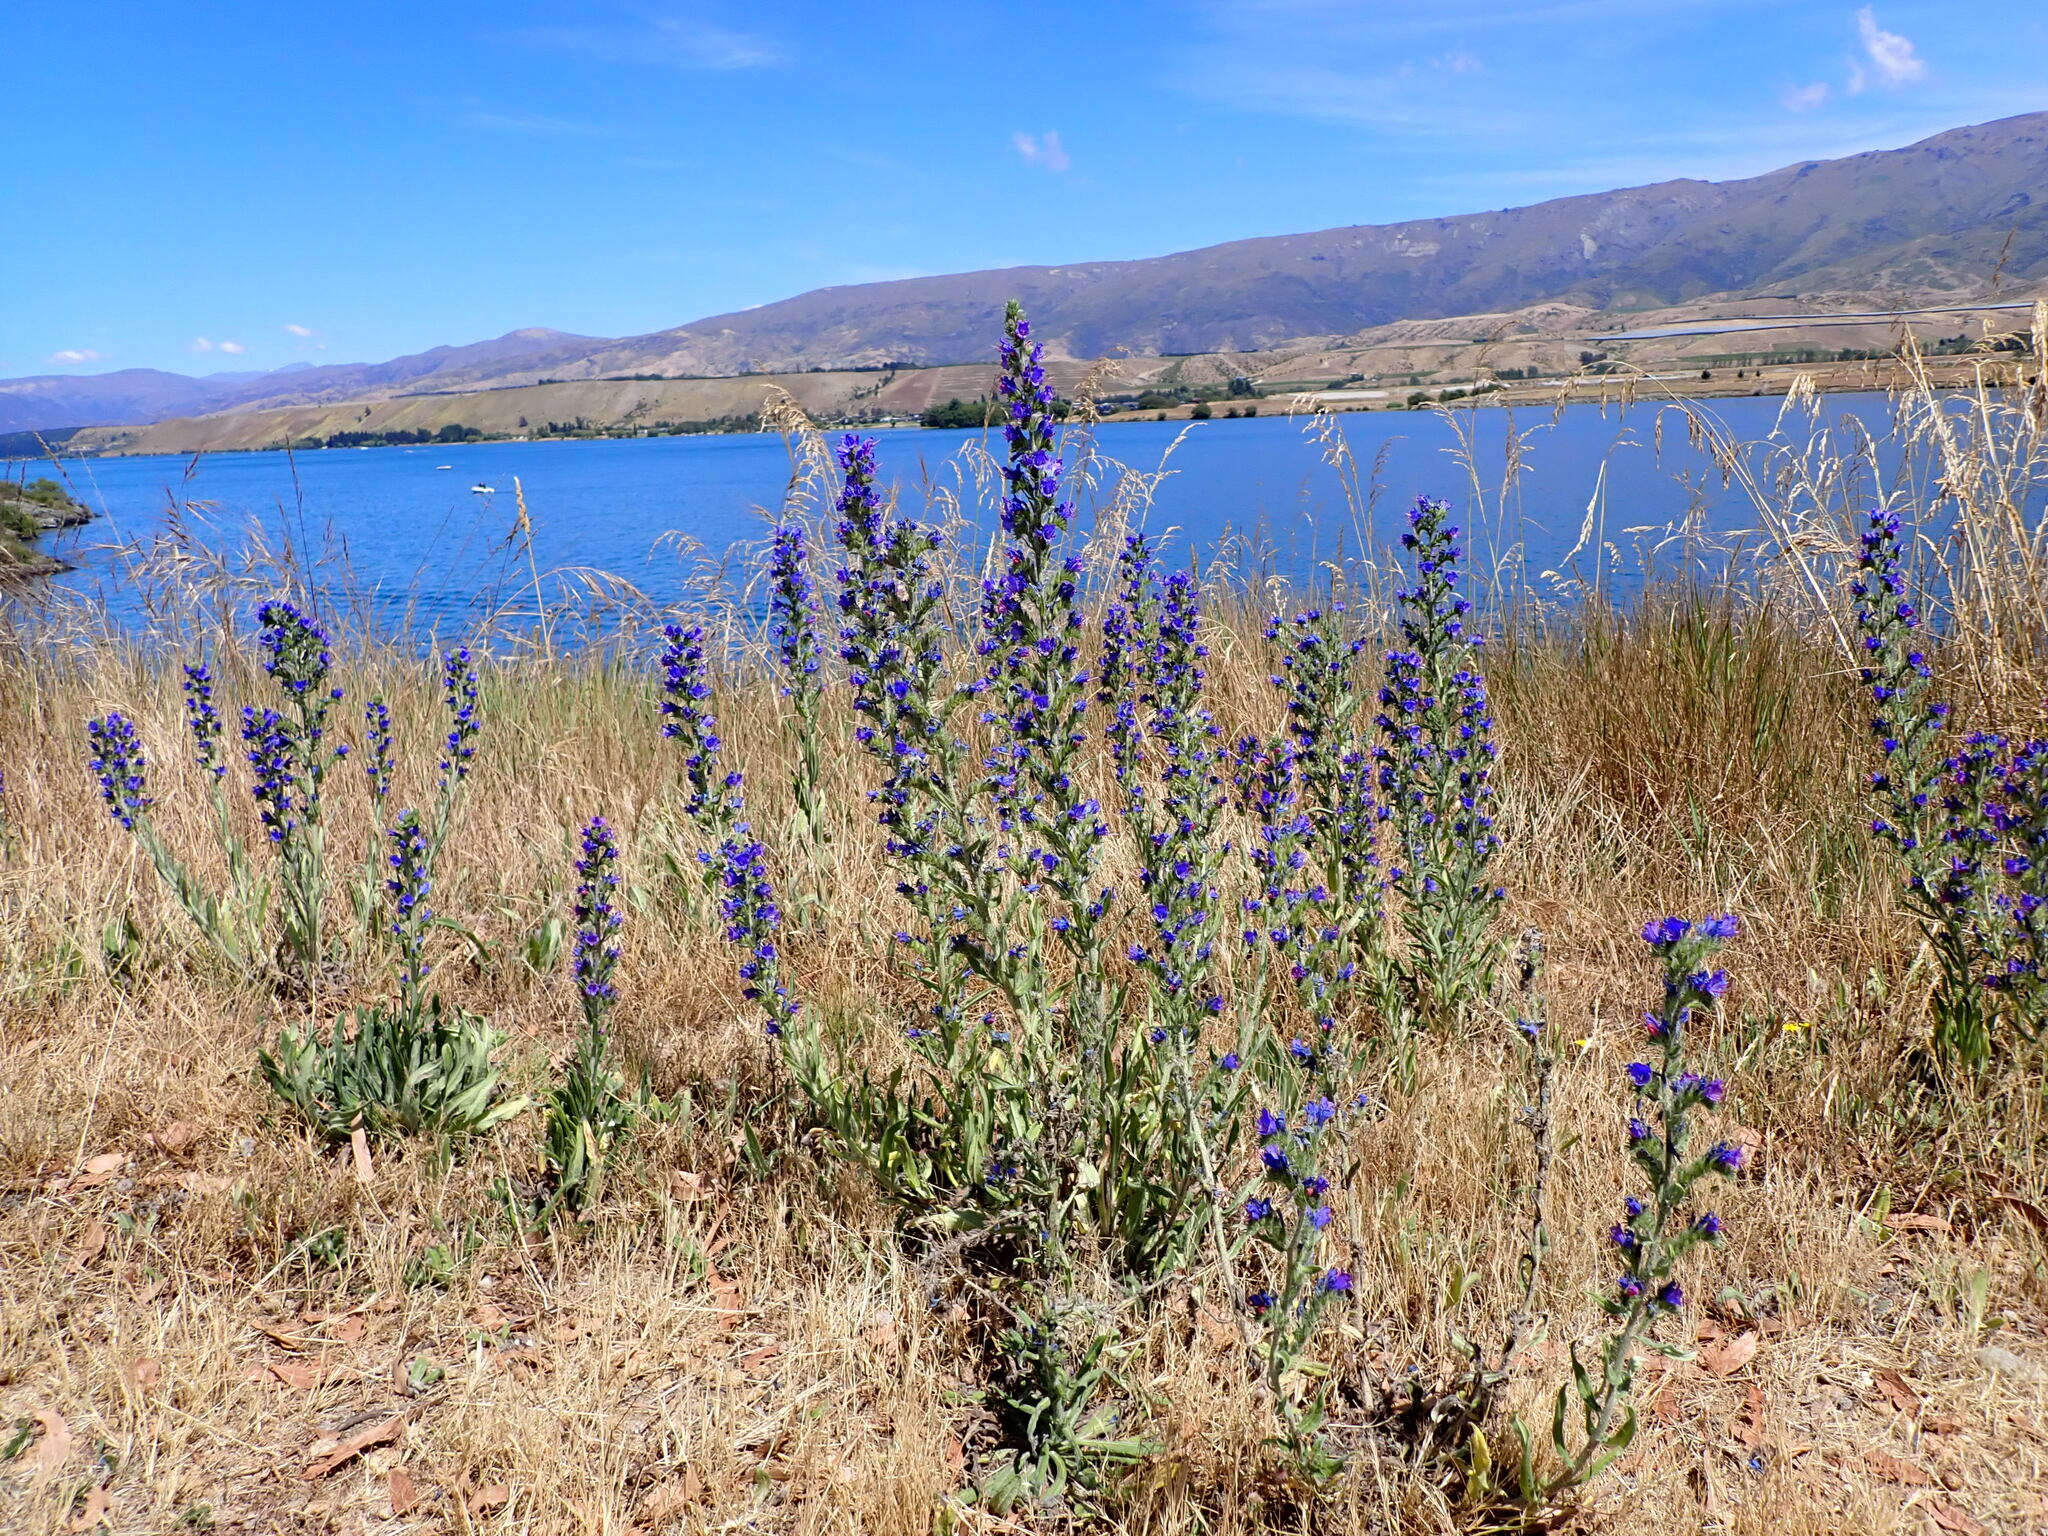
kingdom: Plantae
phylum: Tracheophyta
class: Magnoliopsida
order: Boraginales
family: Boraginaceae
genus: Echium
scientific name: Echium vulgare
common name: Common viper's bugloss
